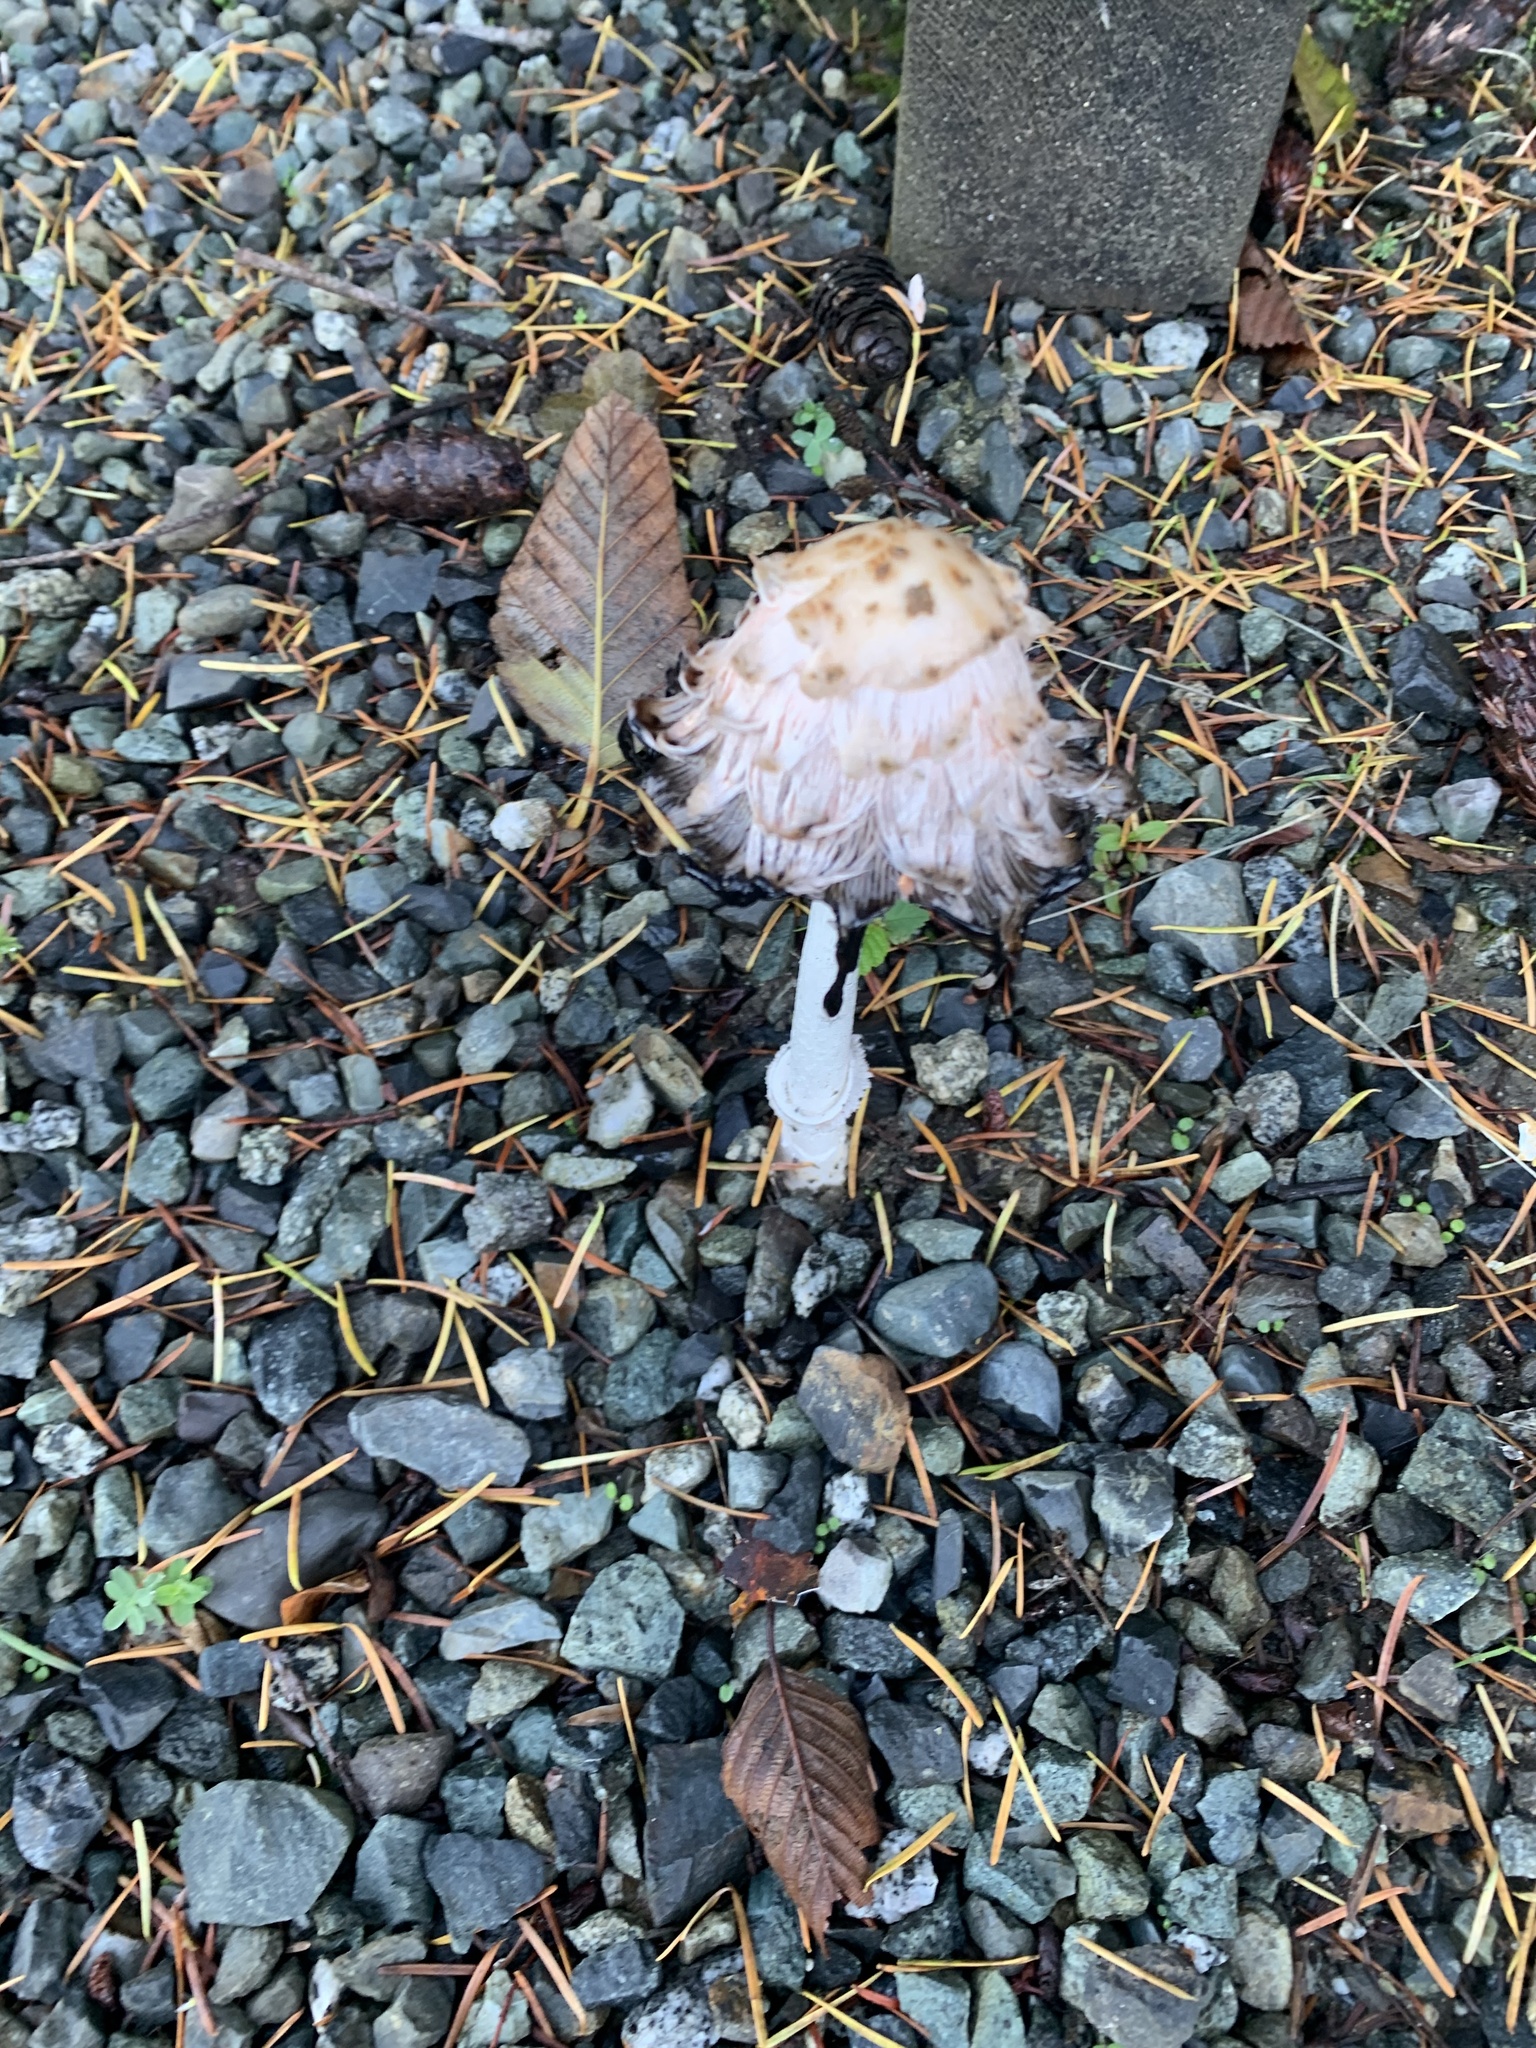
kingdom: Fungi
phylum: Basidiomycota
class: Agaricomycetes
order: Agaricales
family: Agaricaceae
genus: Coprinus
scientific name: Coprinus comatus
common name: Lawyer's wig
